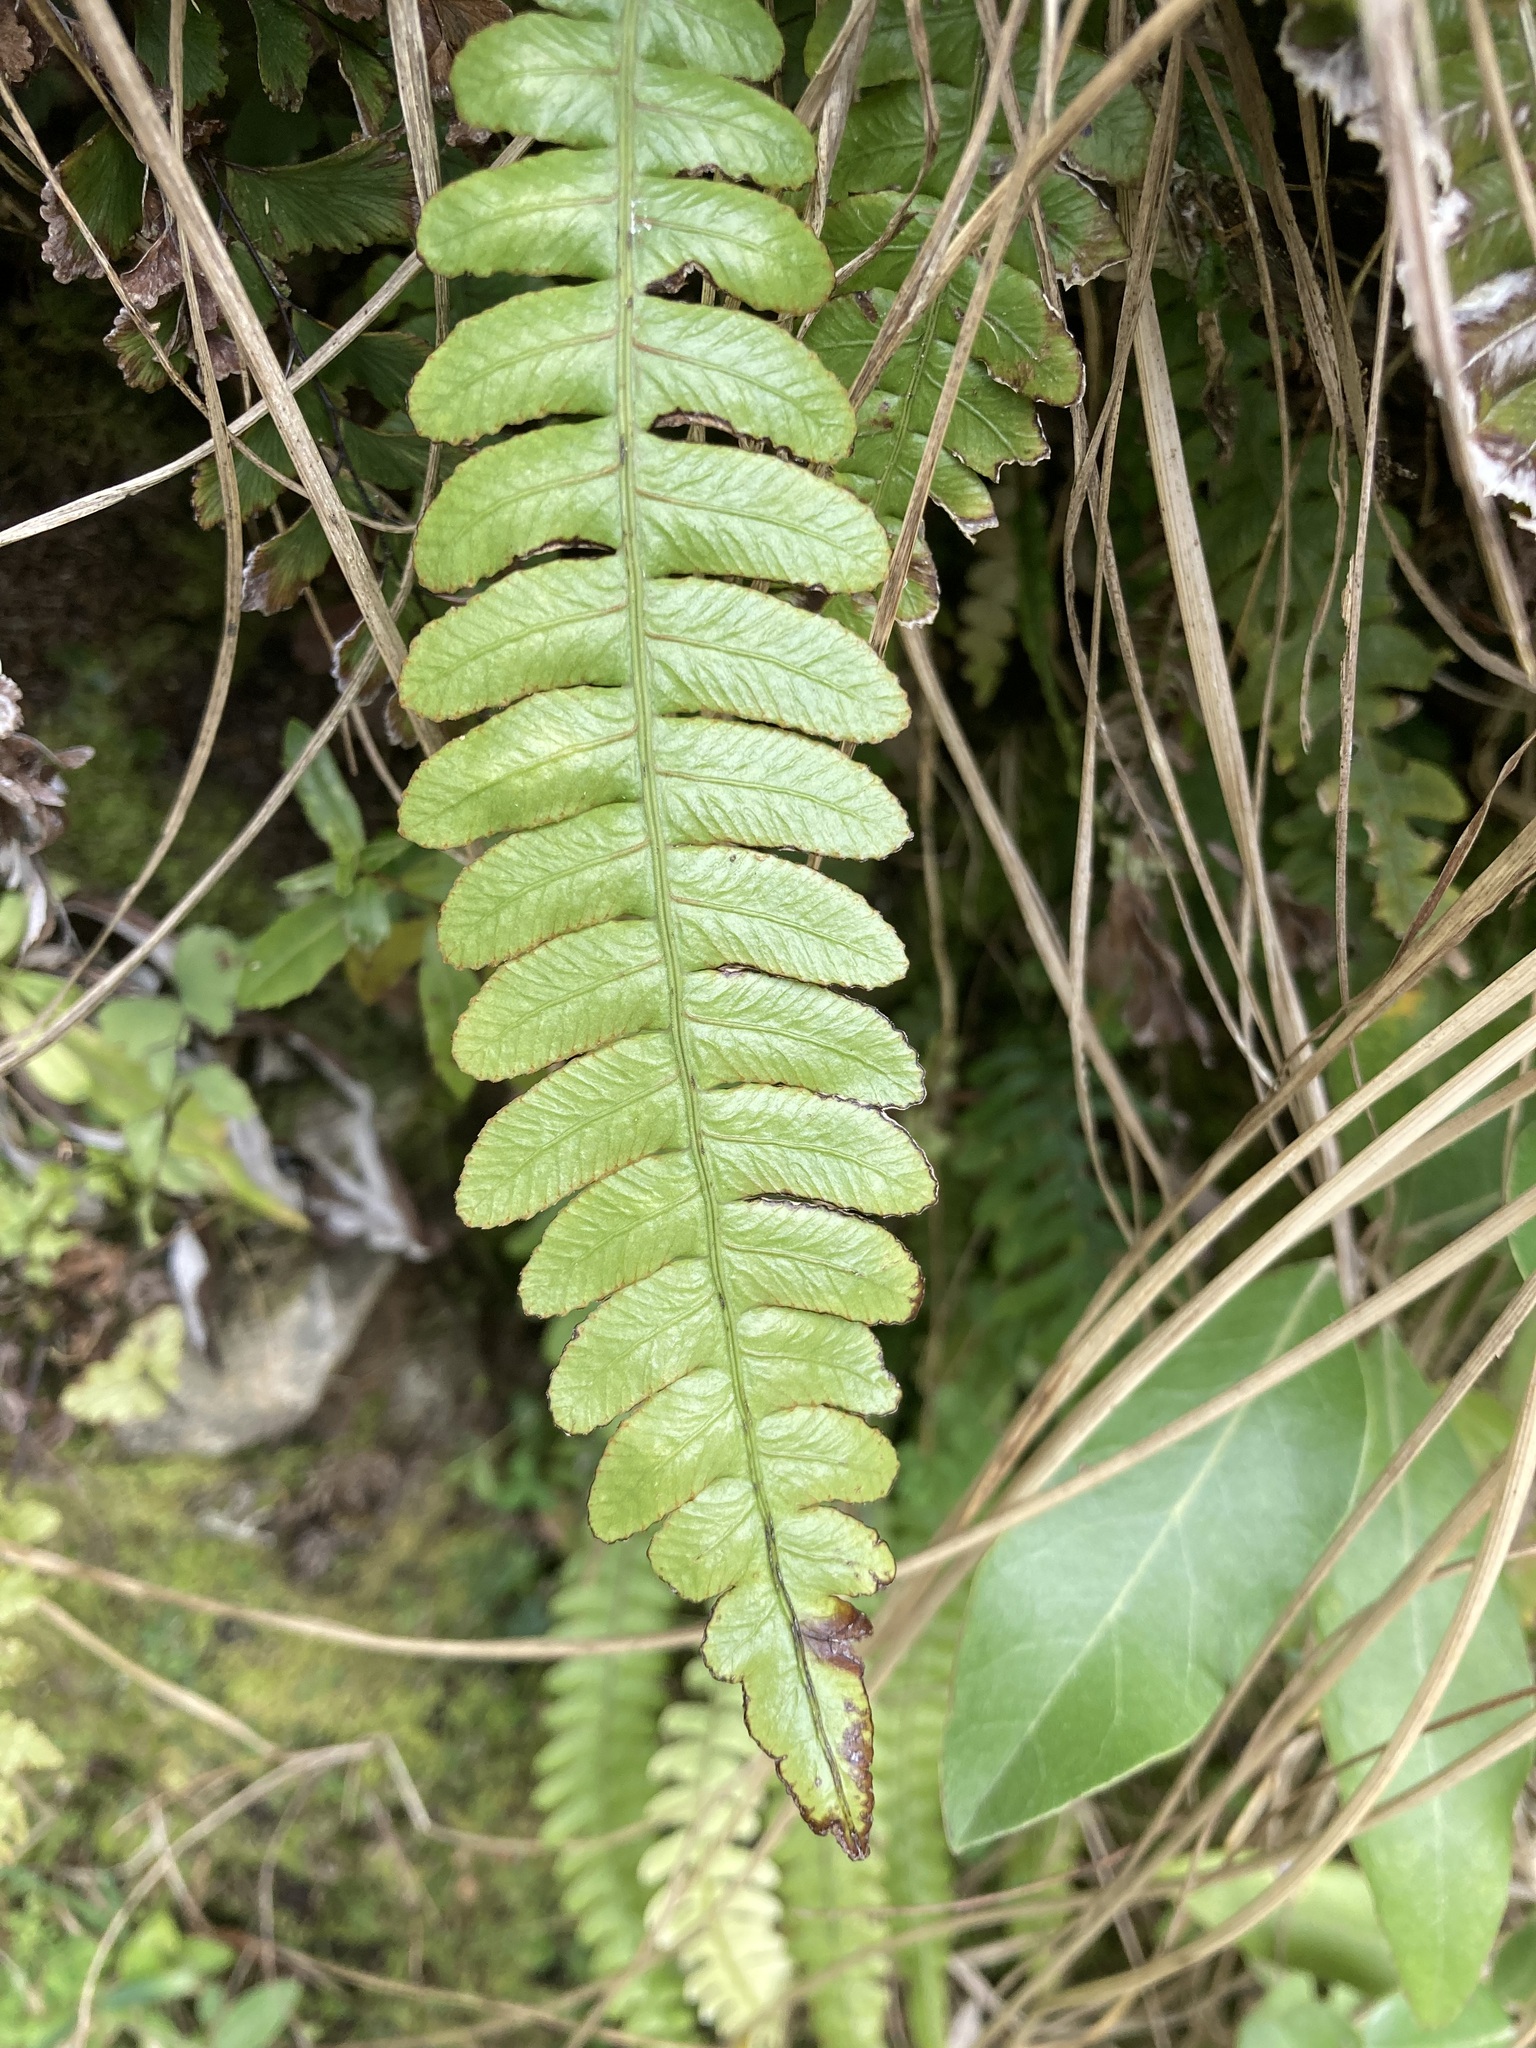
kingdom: Plantae
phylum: Tracheophyta
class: Polypodiopsida
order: Polypodiales
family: Blechnaceae
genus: Austroblechnum
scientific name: Austroblechnum lanceolatum
